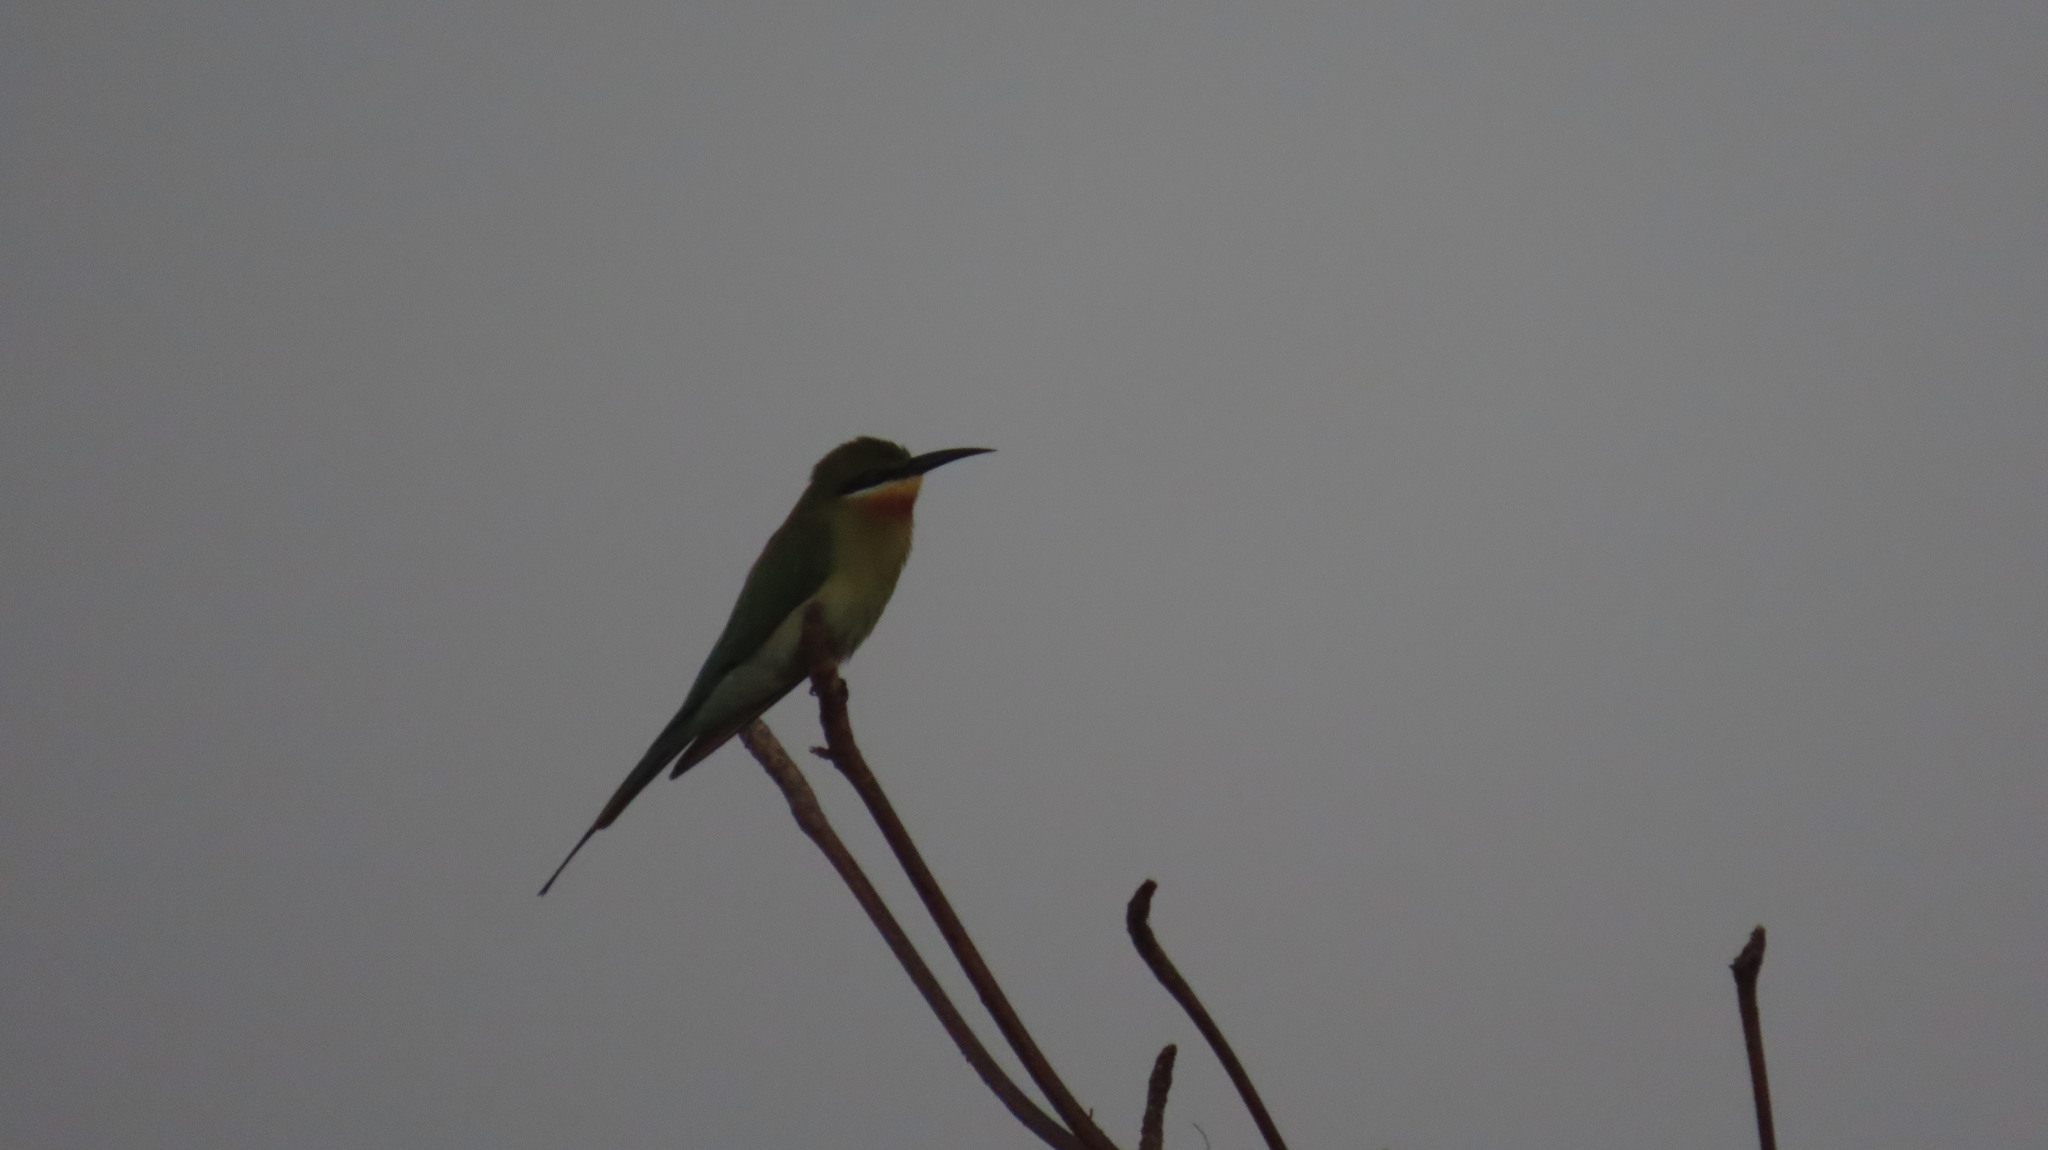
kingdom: Animalia
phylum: Chordata
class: Aves
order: Coraciiformes
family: Meropidae
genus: Merops
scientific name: Merops philippinus
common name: Blue-tailed bee-eater
